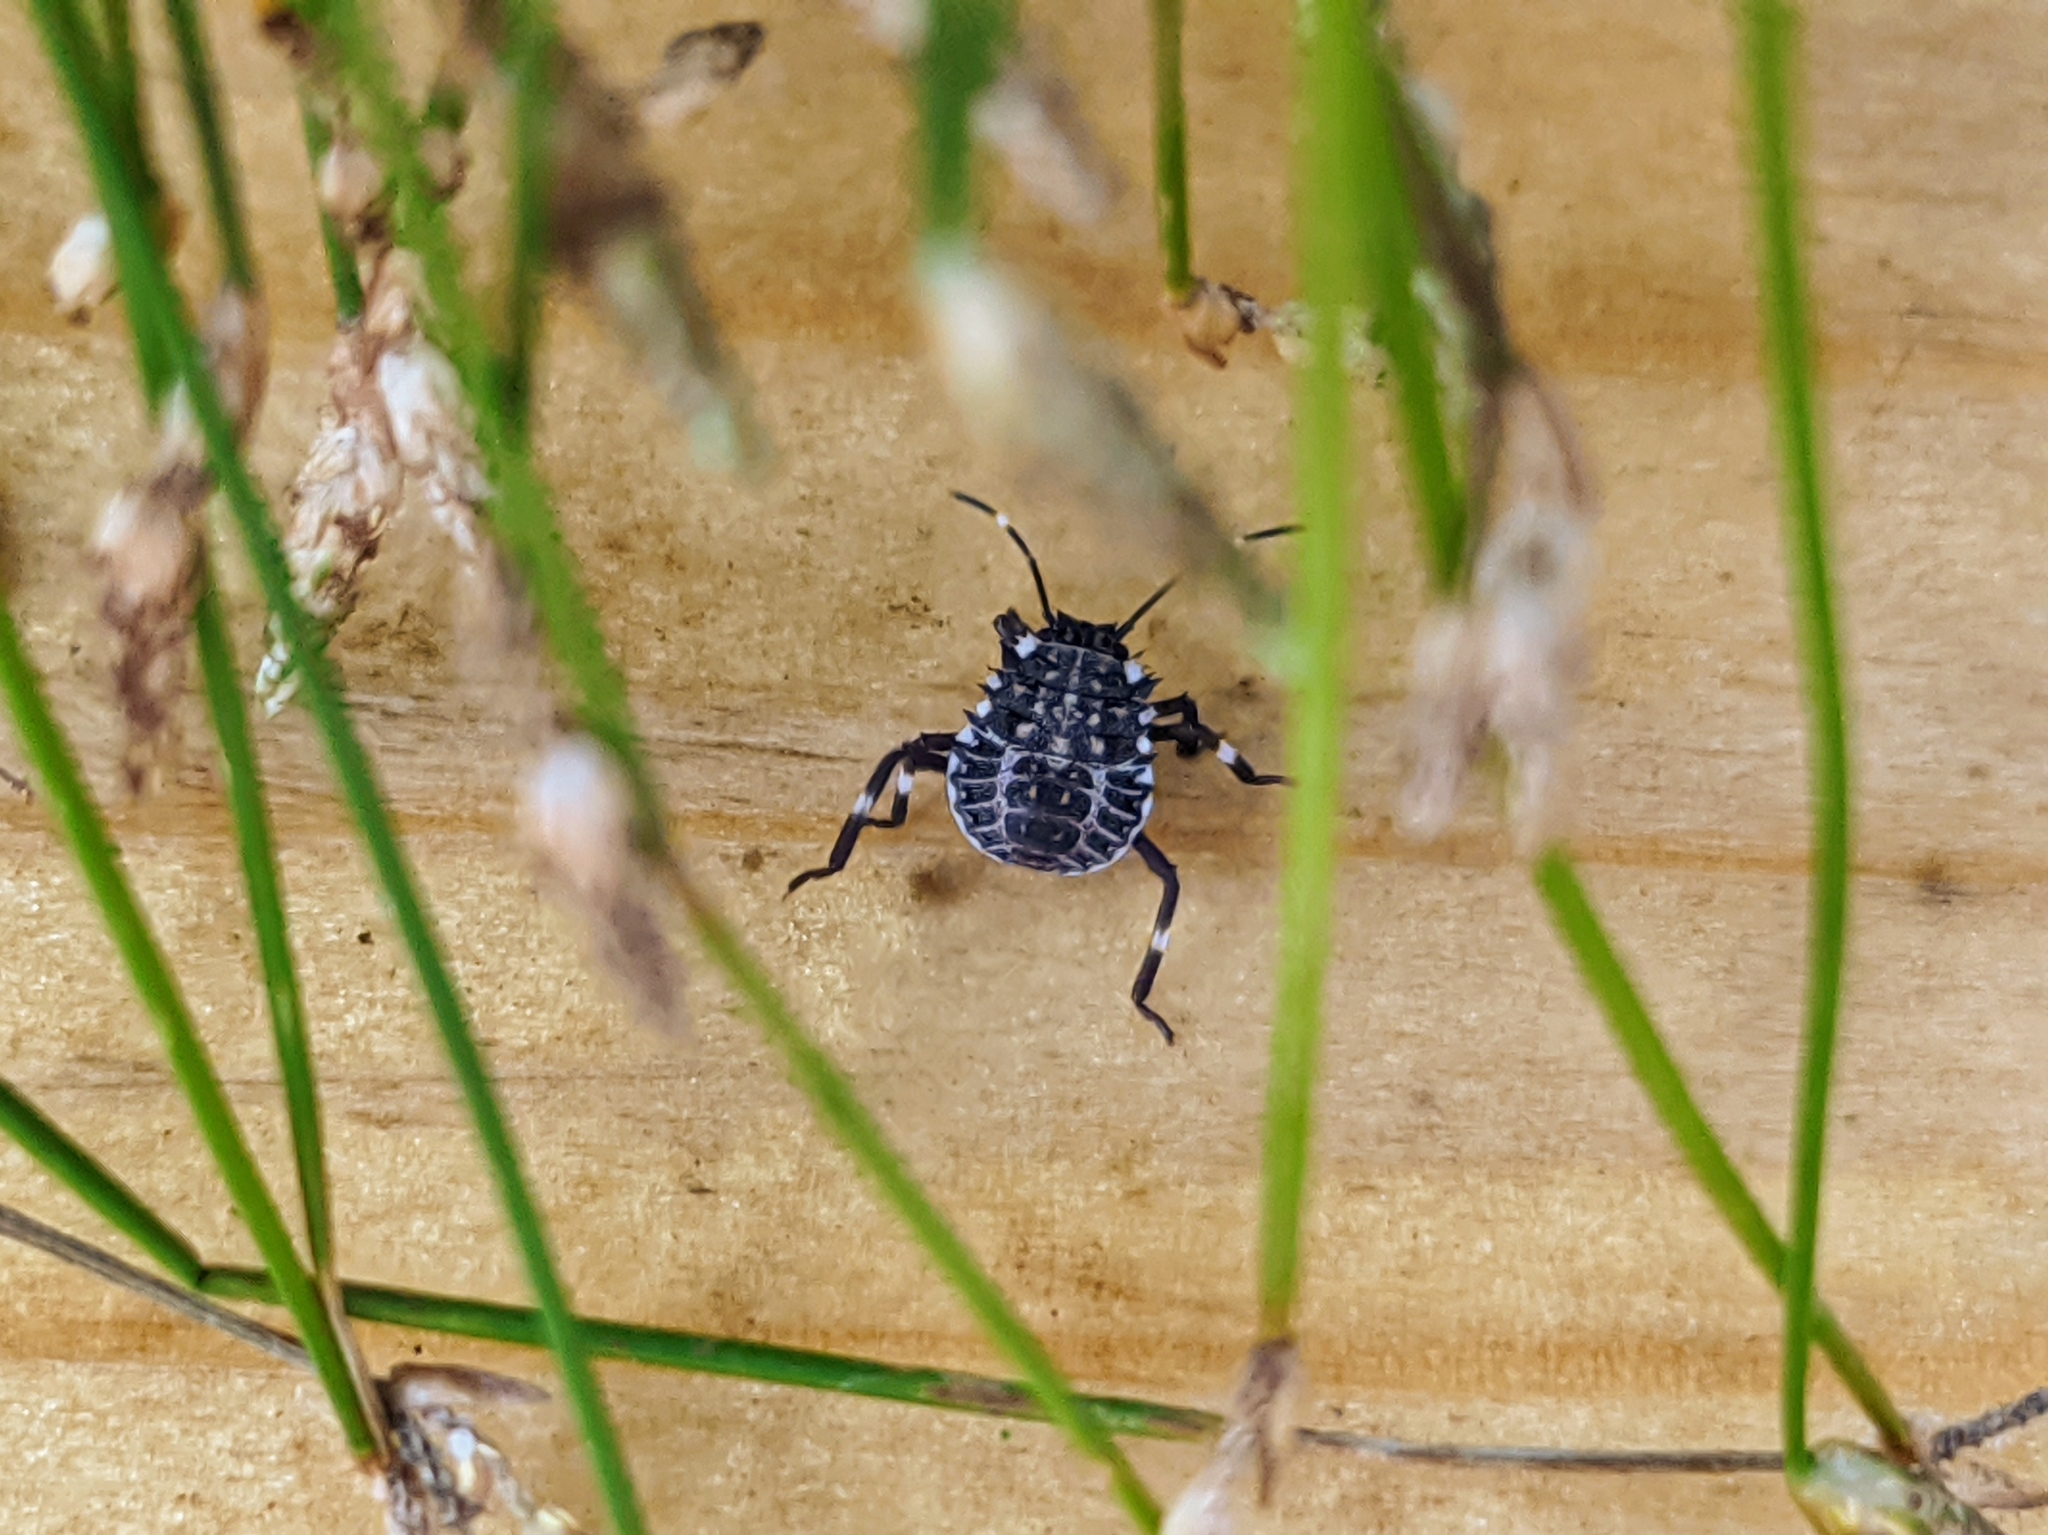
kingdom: Animalia
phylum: Arthropoda
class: Insecta
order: Hemiptera
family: Pentatomidae
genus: Halyomorpha
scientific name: Halyomorpha halys
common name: Brown marmorated stink bug
